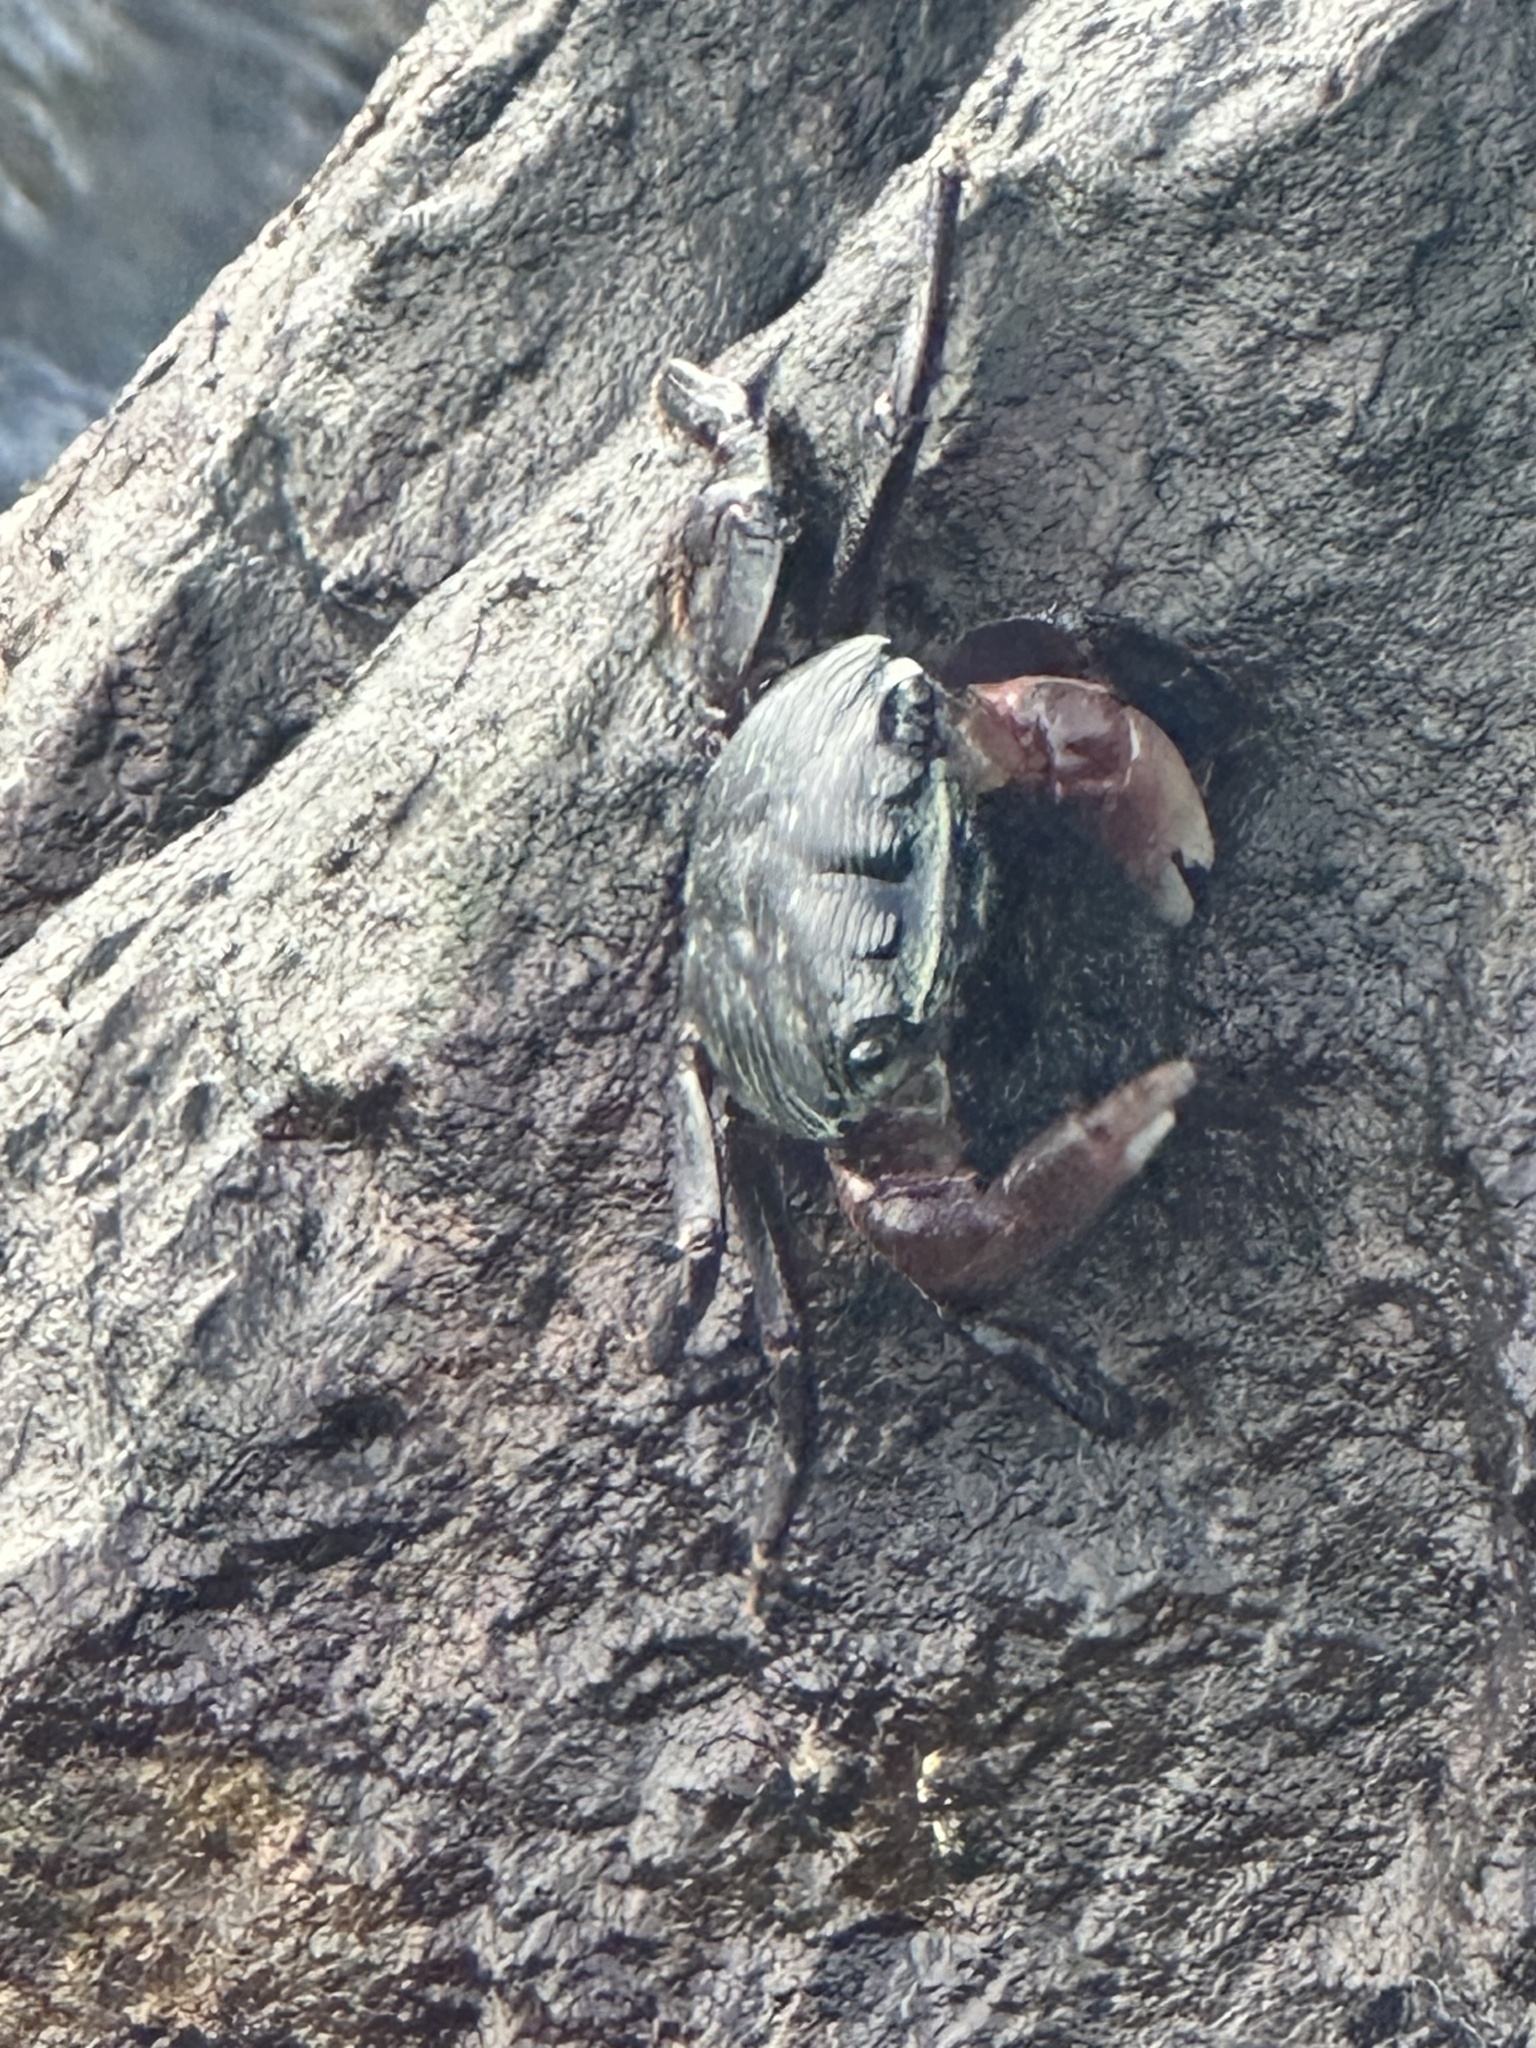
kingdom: Animalia
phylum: Arthropoda
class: Malacostraca
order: Decapoda
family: Grapsidae
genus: Pachygrapsus
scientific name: Pachygrapsus crassipes
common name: Striped shore crab
